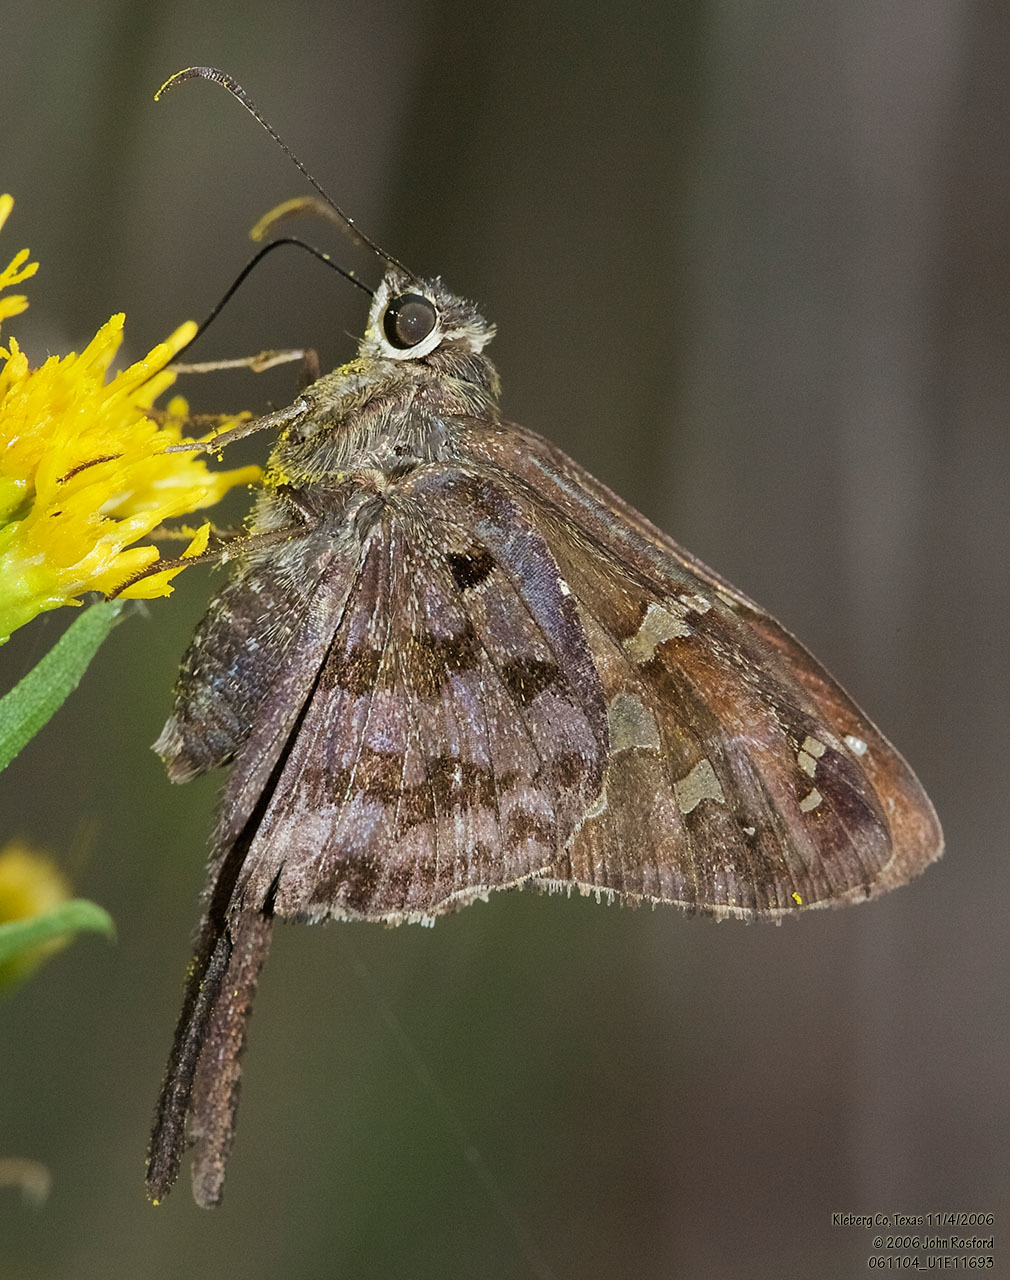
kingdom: Animalia
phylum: Arthropoda
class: Insecta
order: Lepidoptera
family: Hesperiidae
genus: Thorybes
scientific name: Thorybes
